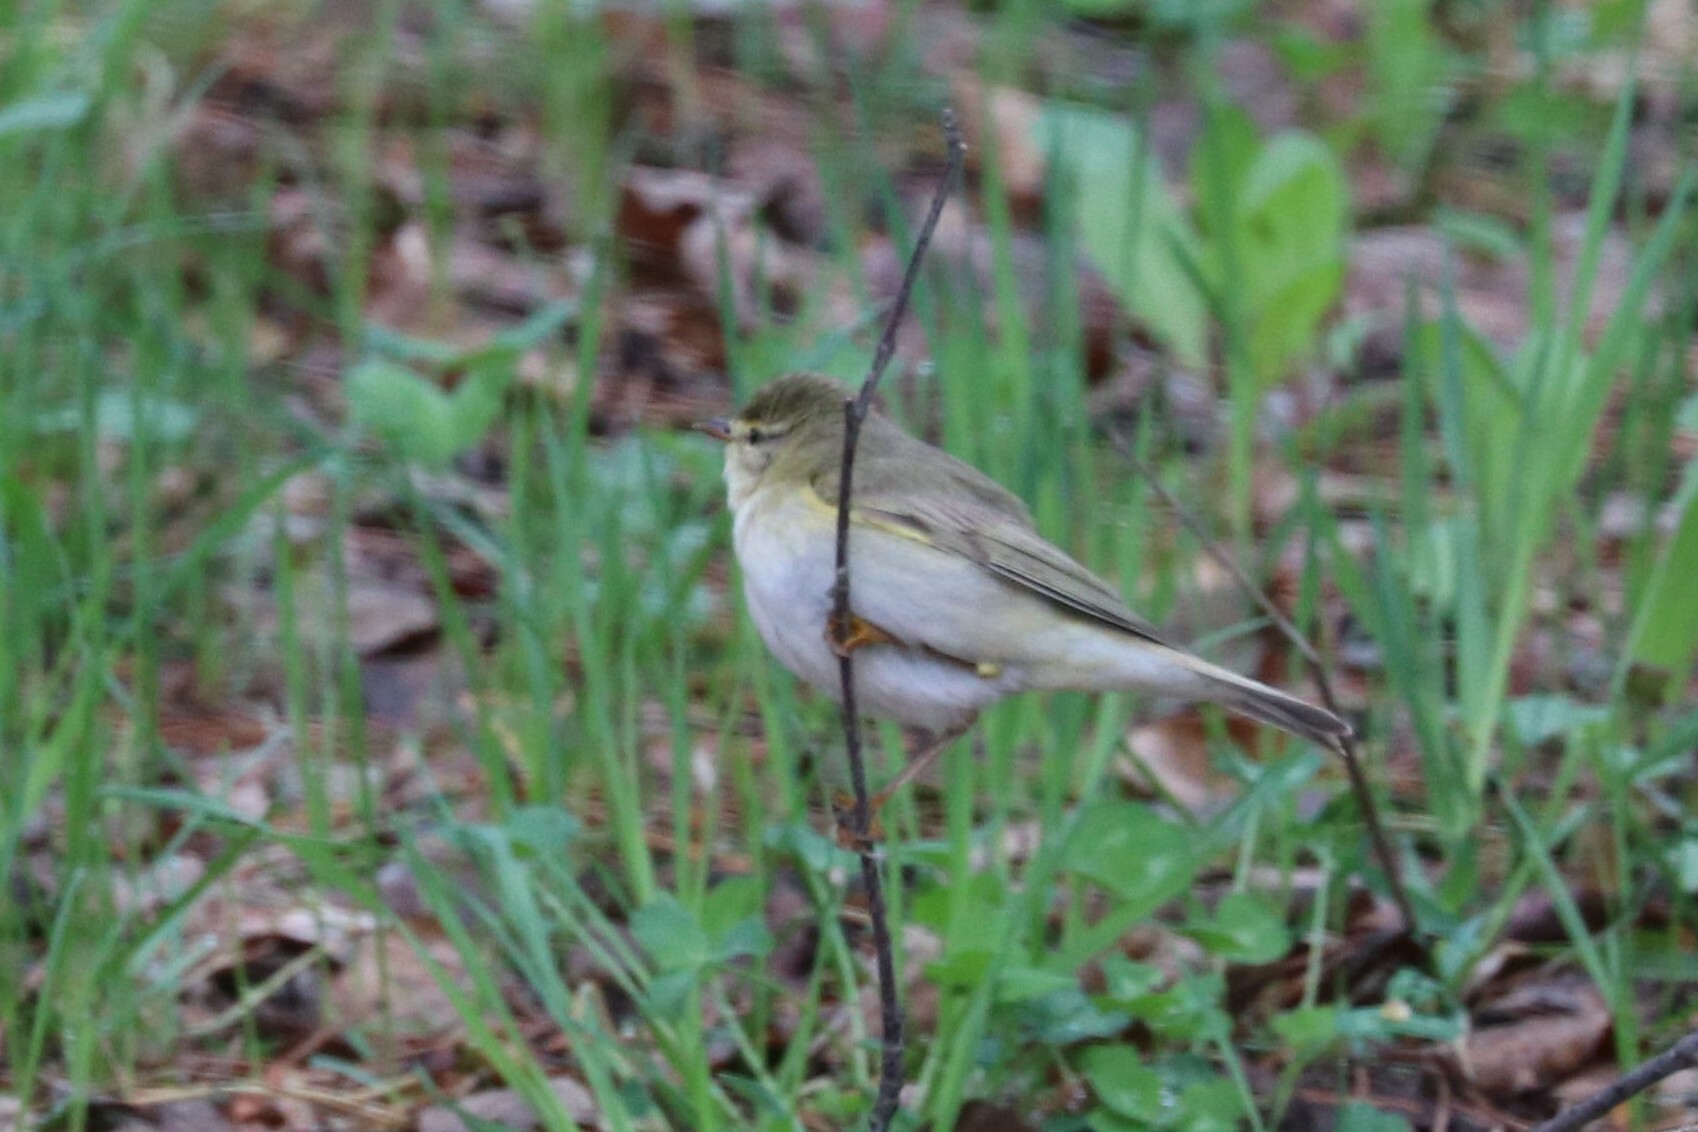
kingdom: Animalia
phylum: Chordata
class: Aves
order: Passeriformes
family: Phylloscopidae
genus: Phylloscopus
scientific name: Phylloscopus trochilus
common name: Willow warbler
